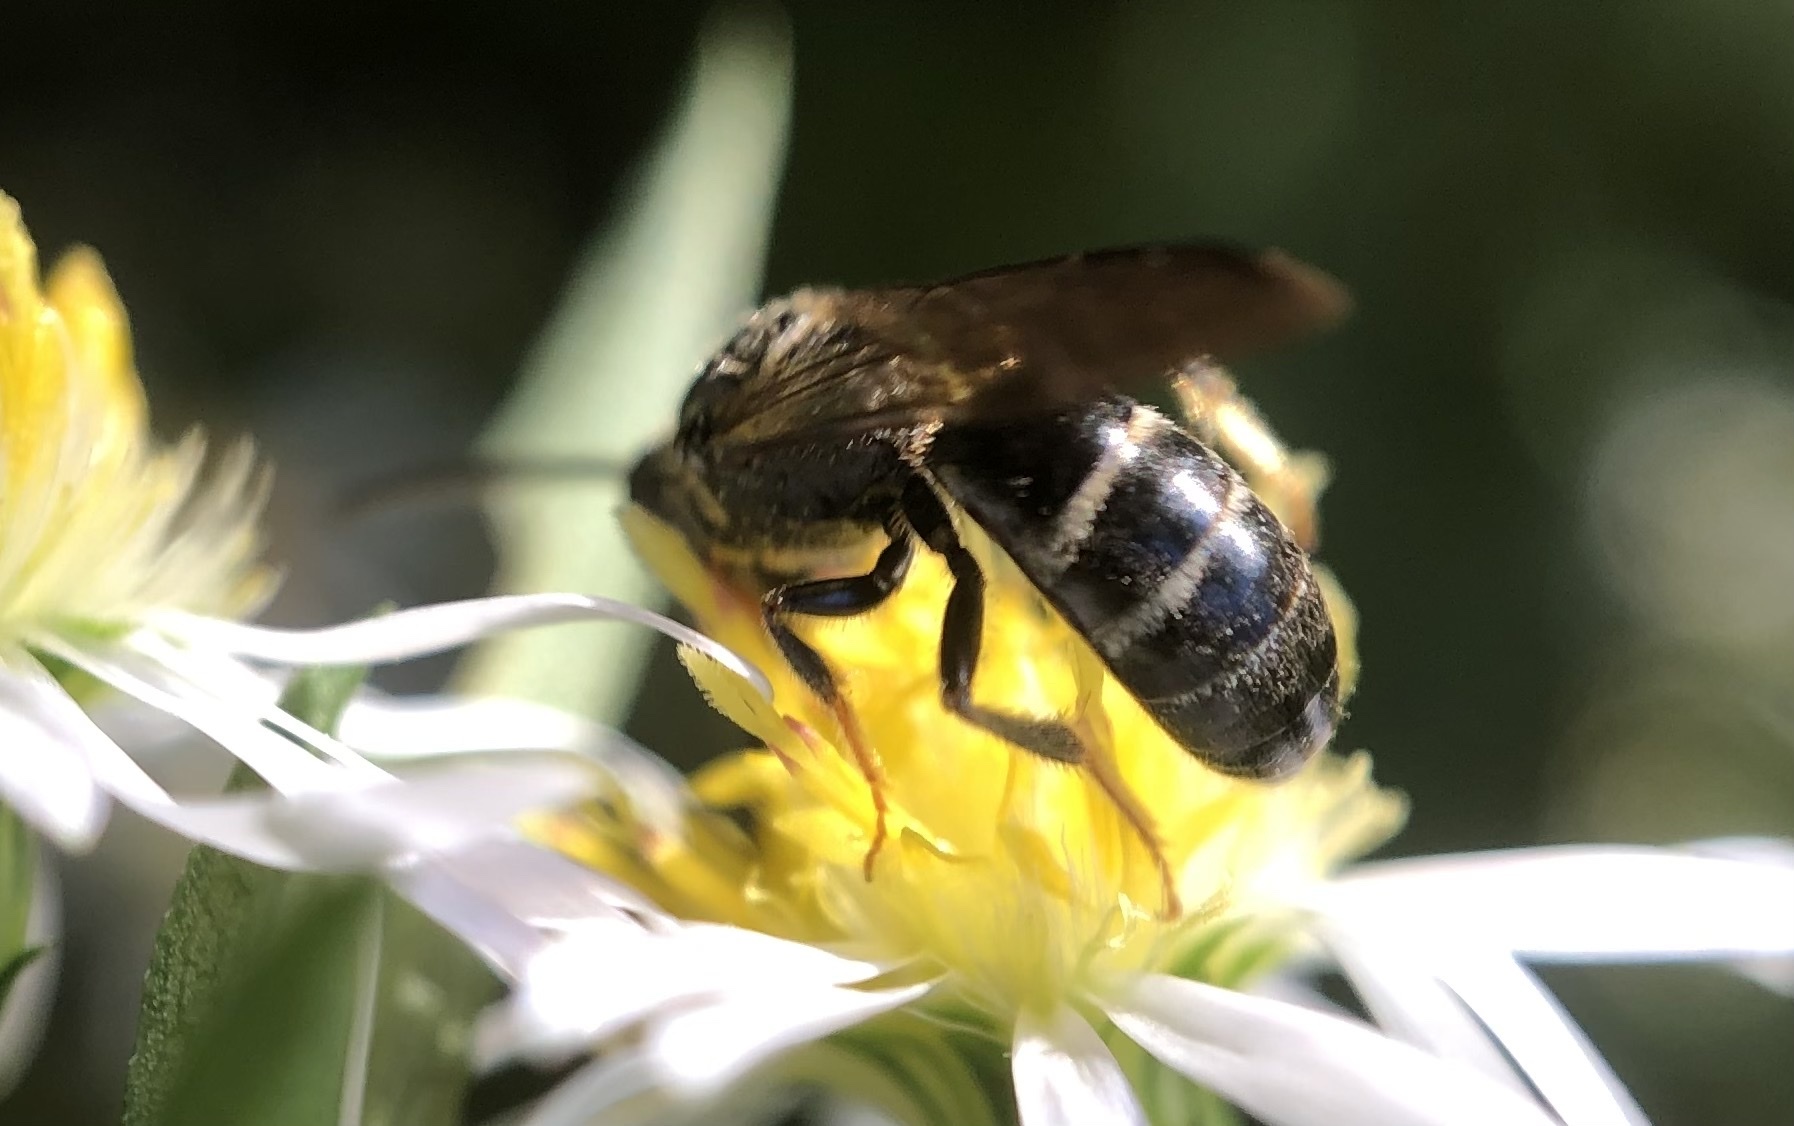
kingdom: Animalia
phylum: Arthropoda
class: Insecta
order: Hymenoptera
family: Halictidae
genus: Lasioglossum
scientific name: Lasioglossum fuscipenne
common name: Brown-winged sweat bee
